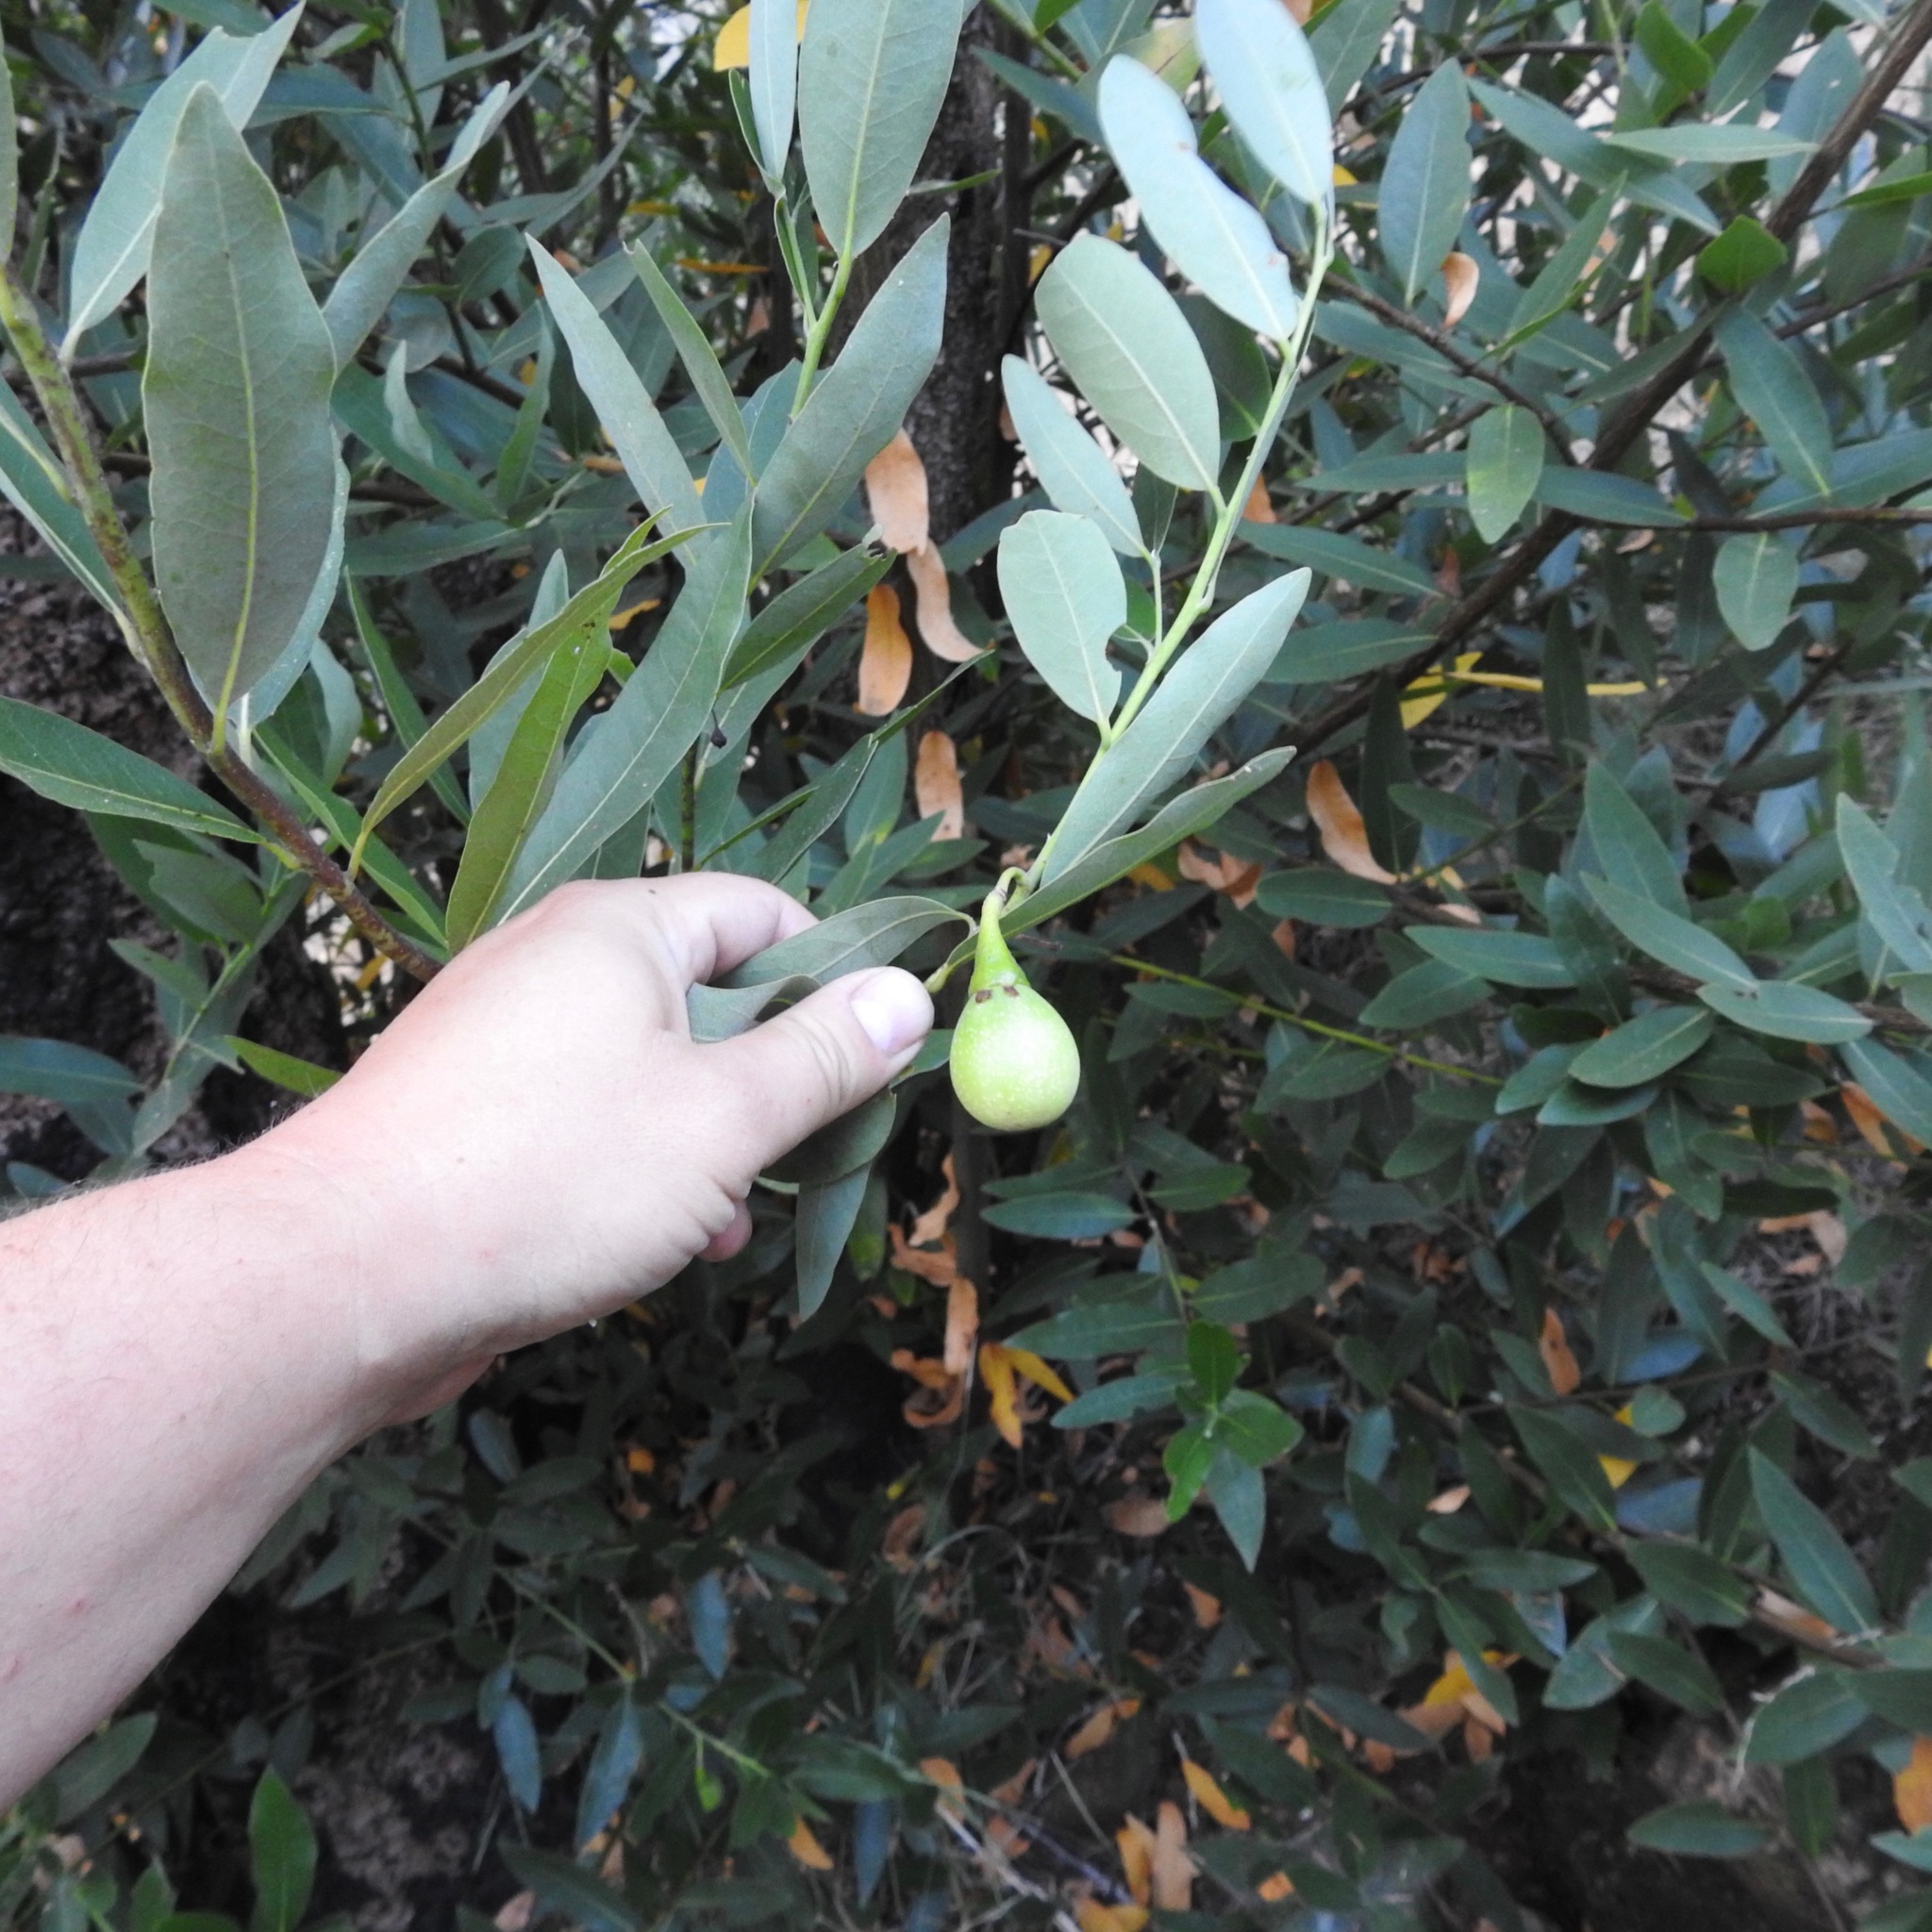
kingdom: Plantae
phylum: Tracheophyta
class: Magnoliopsida
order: Laurales
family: Lauraceae
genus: Umbellularia
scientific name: Umbellularia californica
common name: California bay
